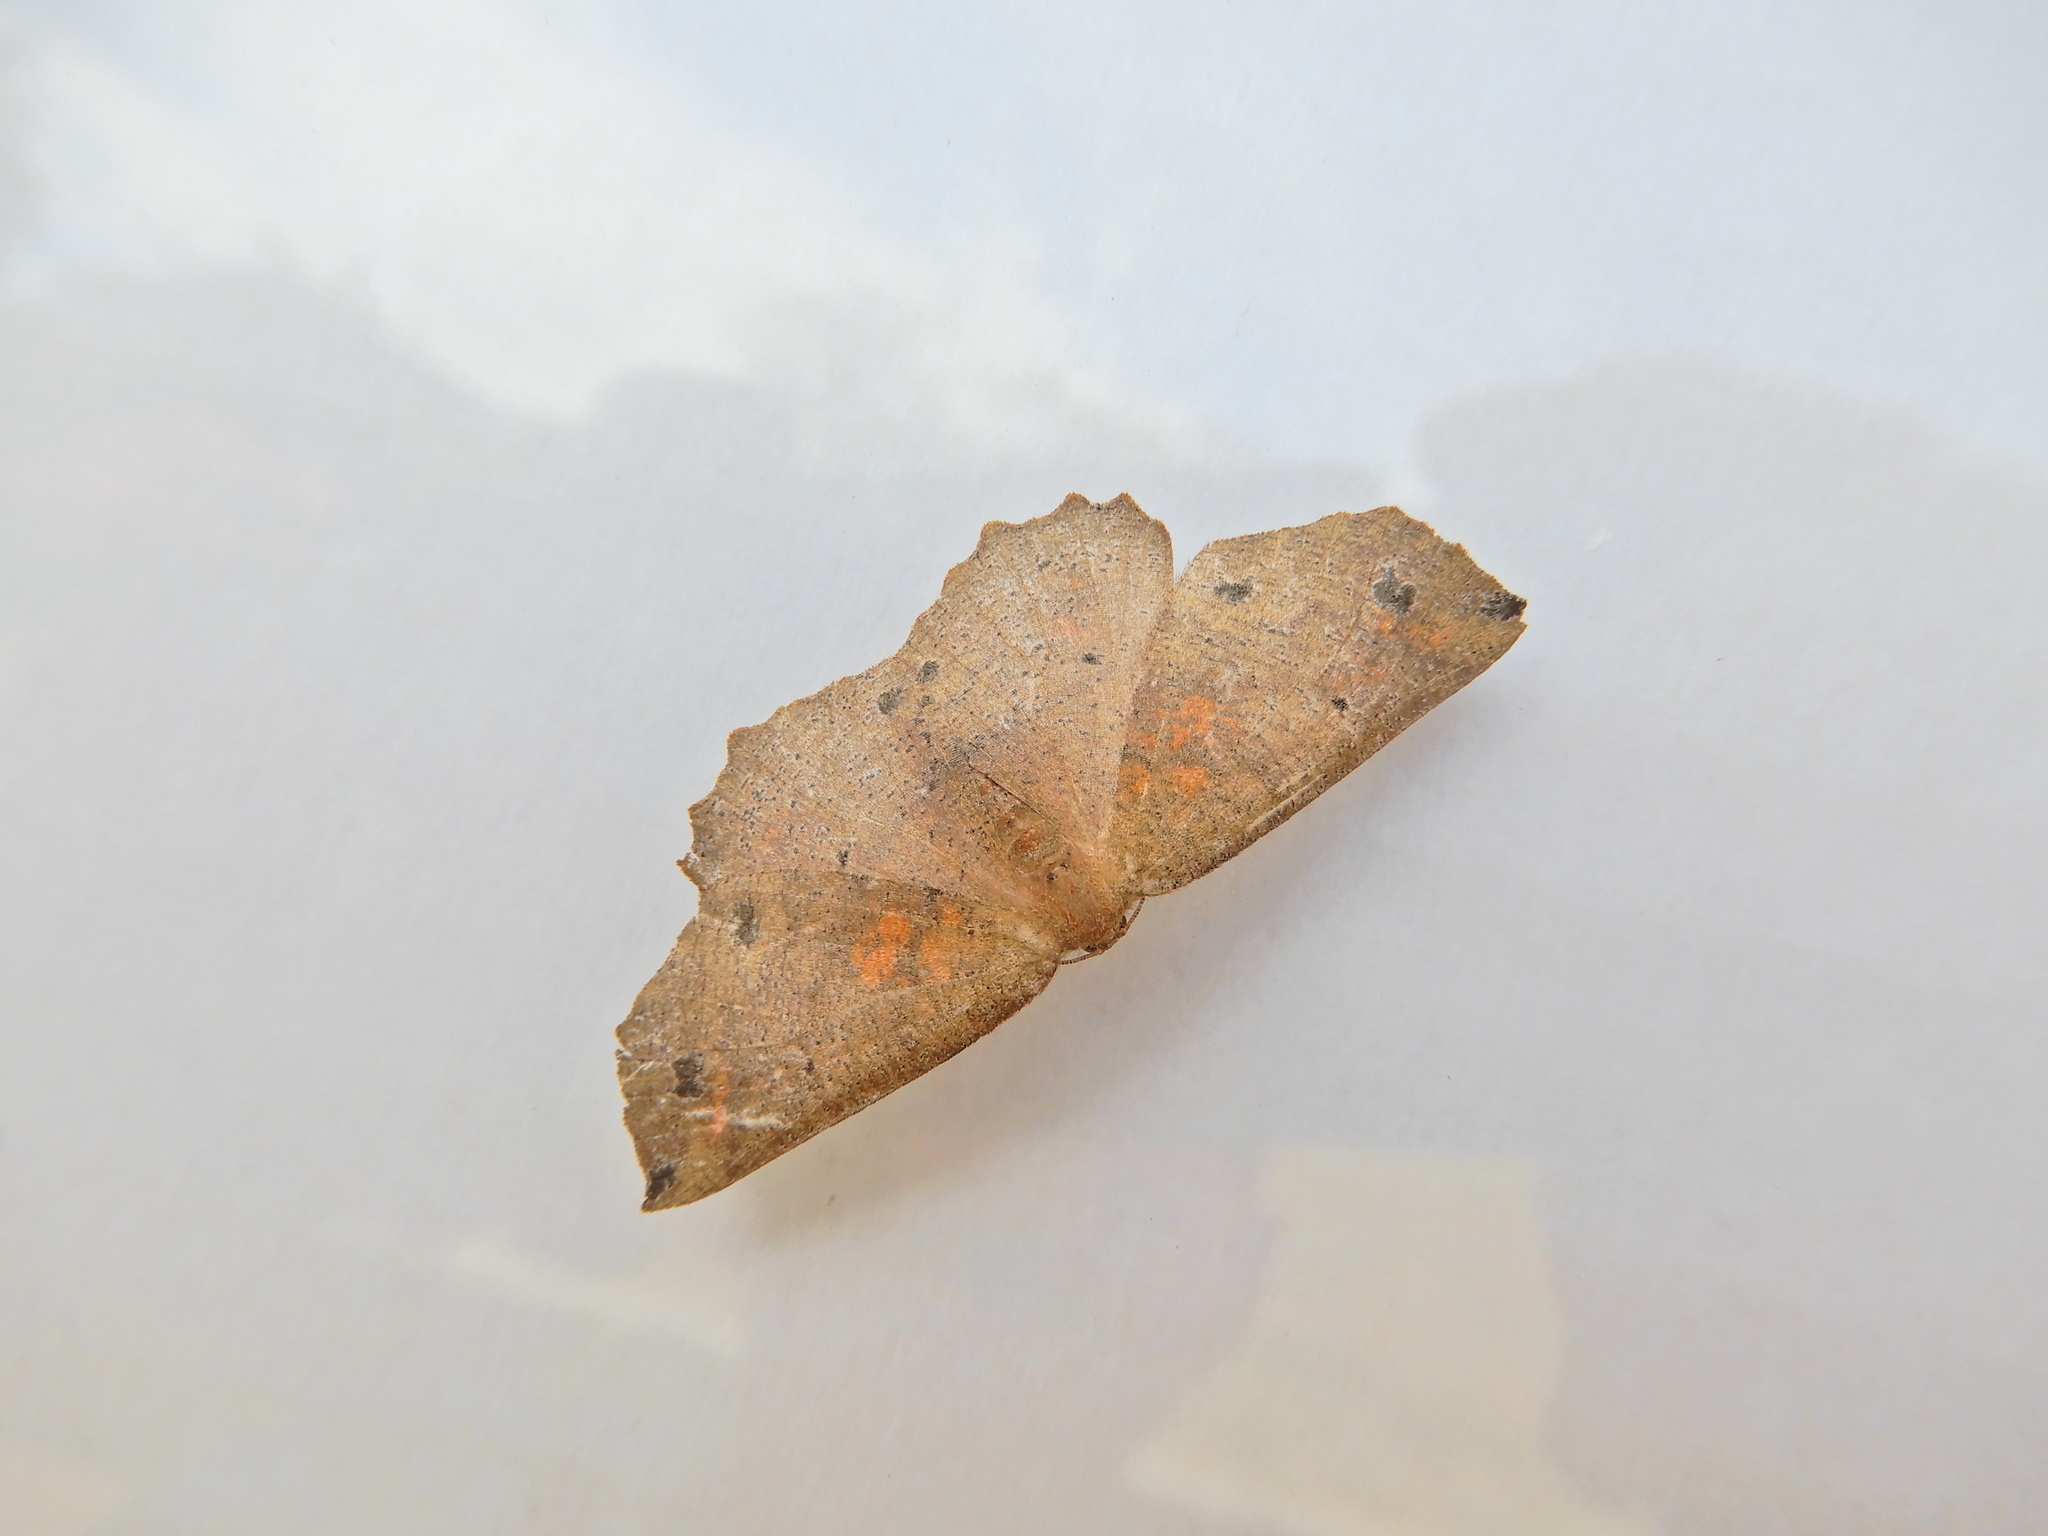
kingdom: Animalia
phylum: Arthropoda
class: Insecta
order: Lepidoptera
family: Geometridae
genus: Xyridacma
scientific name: Xyridacma ustaria
